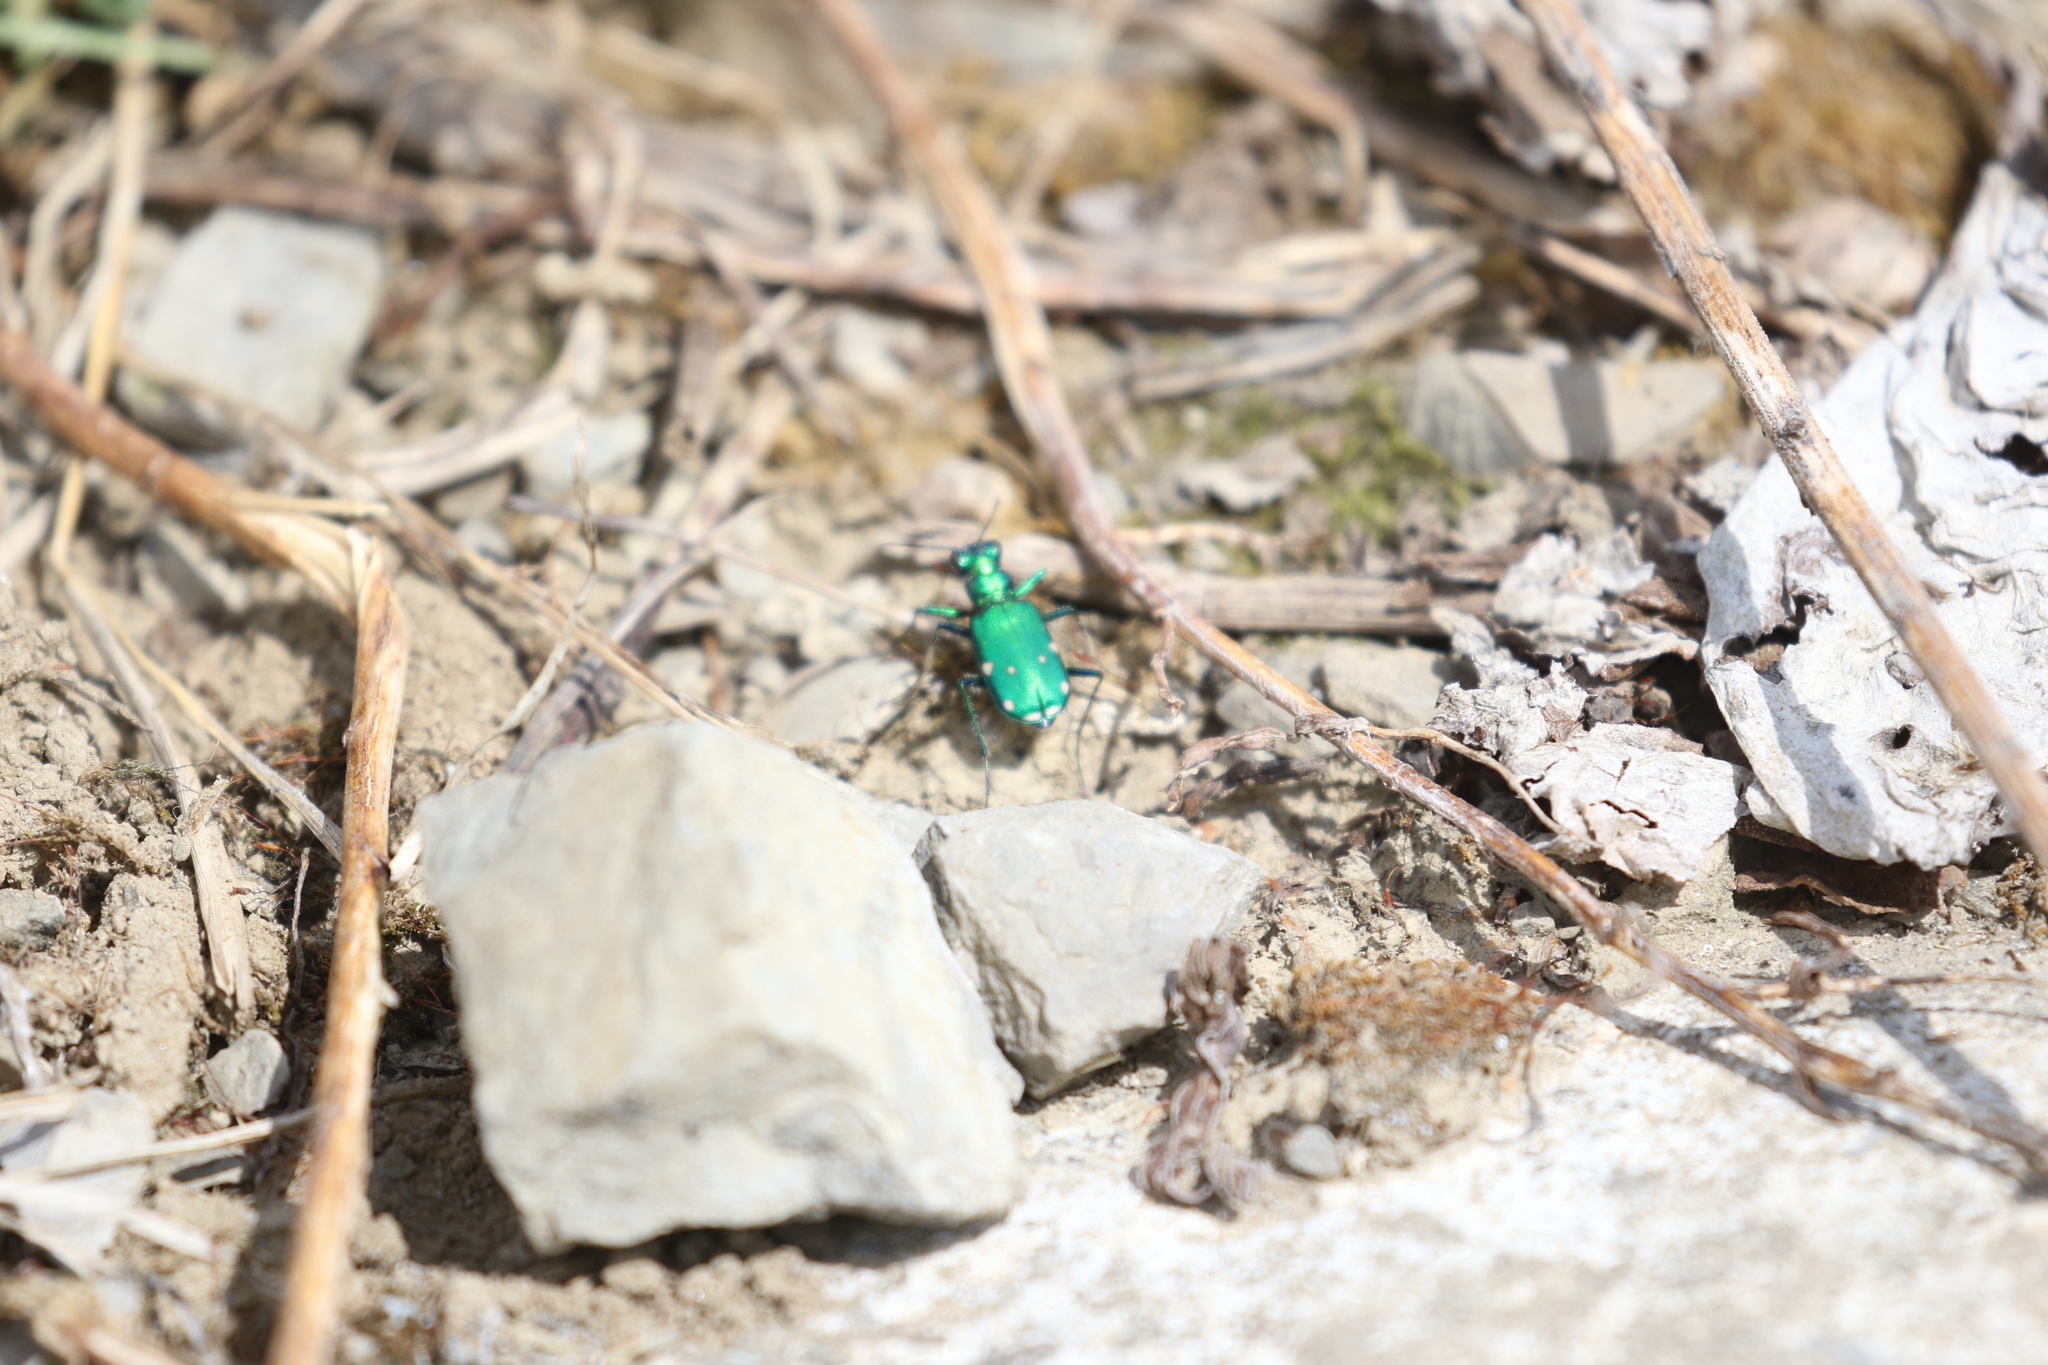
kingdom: Animalia
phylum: Arthropoda
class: Insecta
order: Coleoptera
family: Carabidae
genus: Cicindela
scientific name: Cicindela sexguttata
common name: Six-spotted tiger beetle
